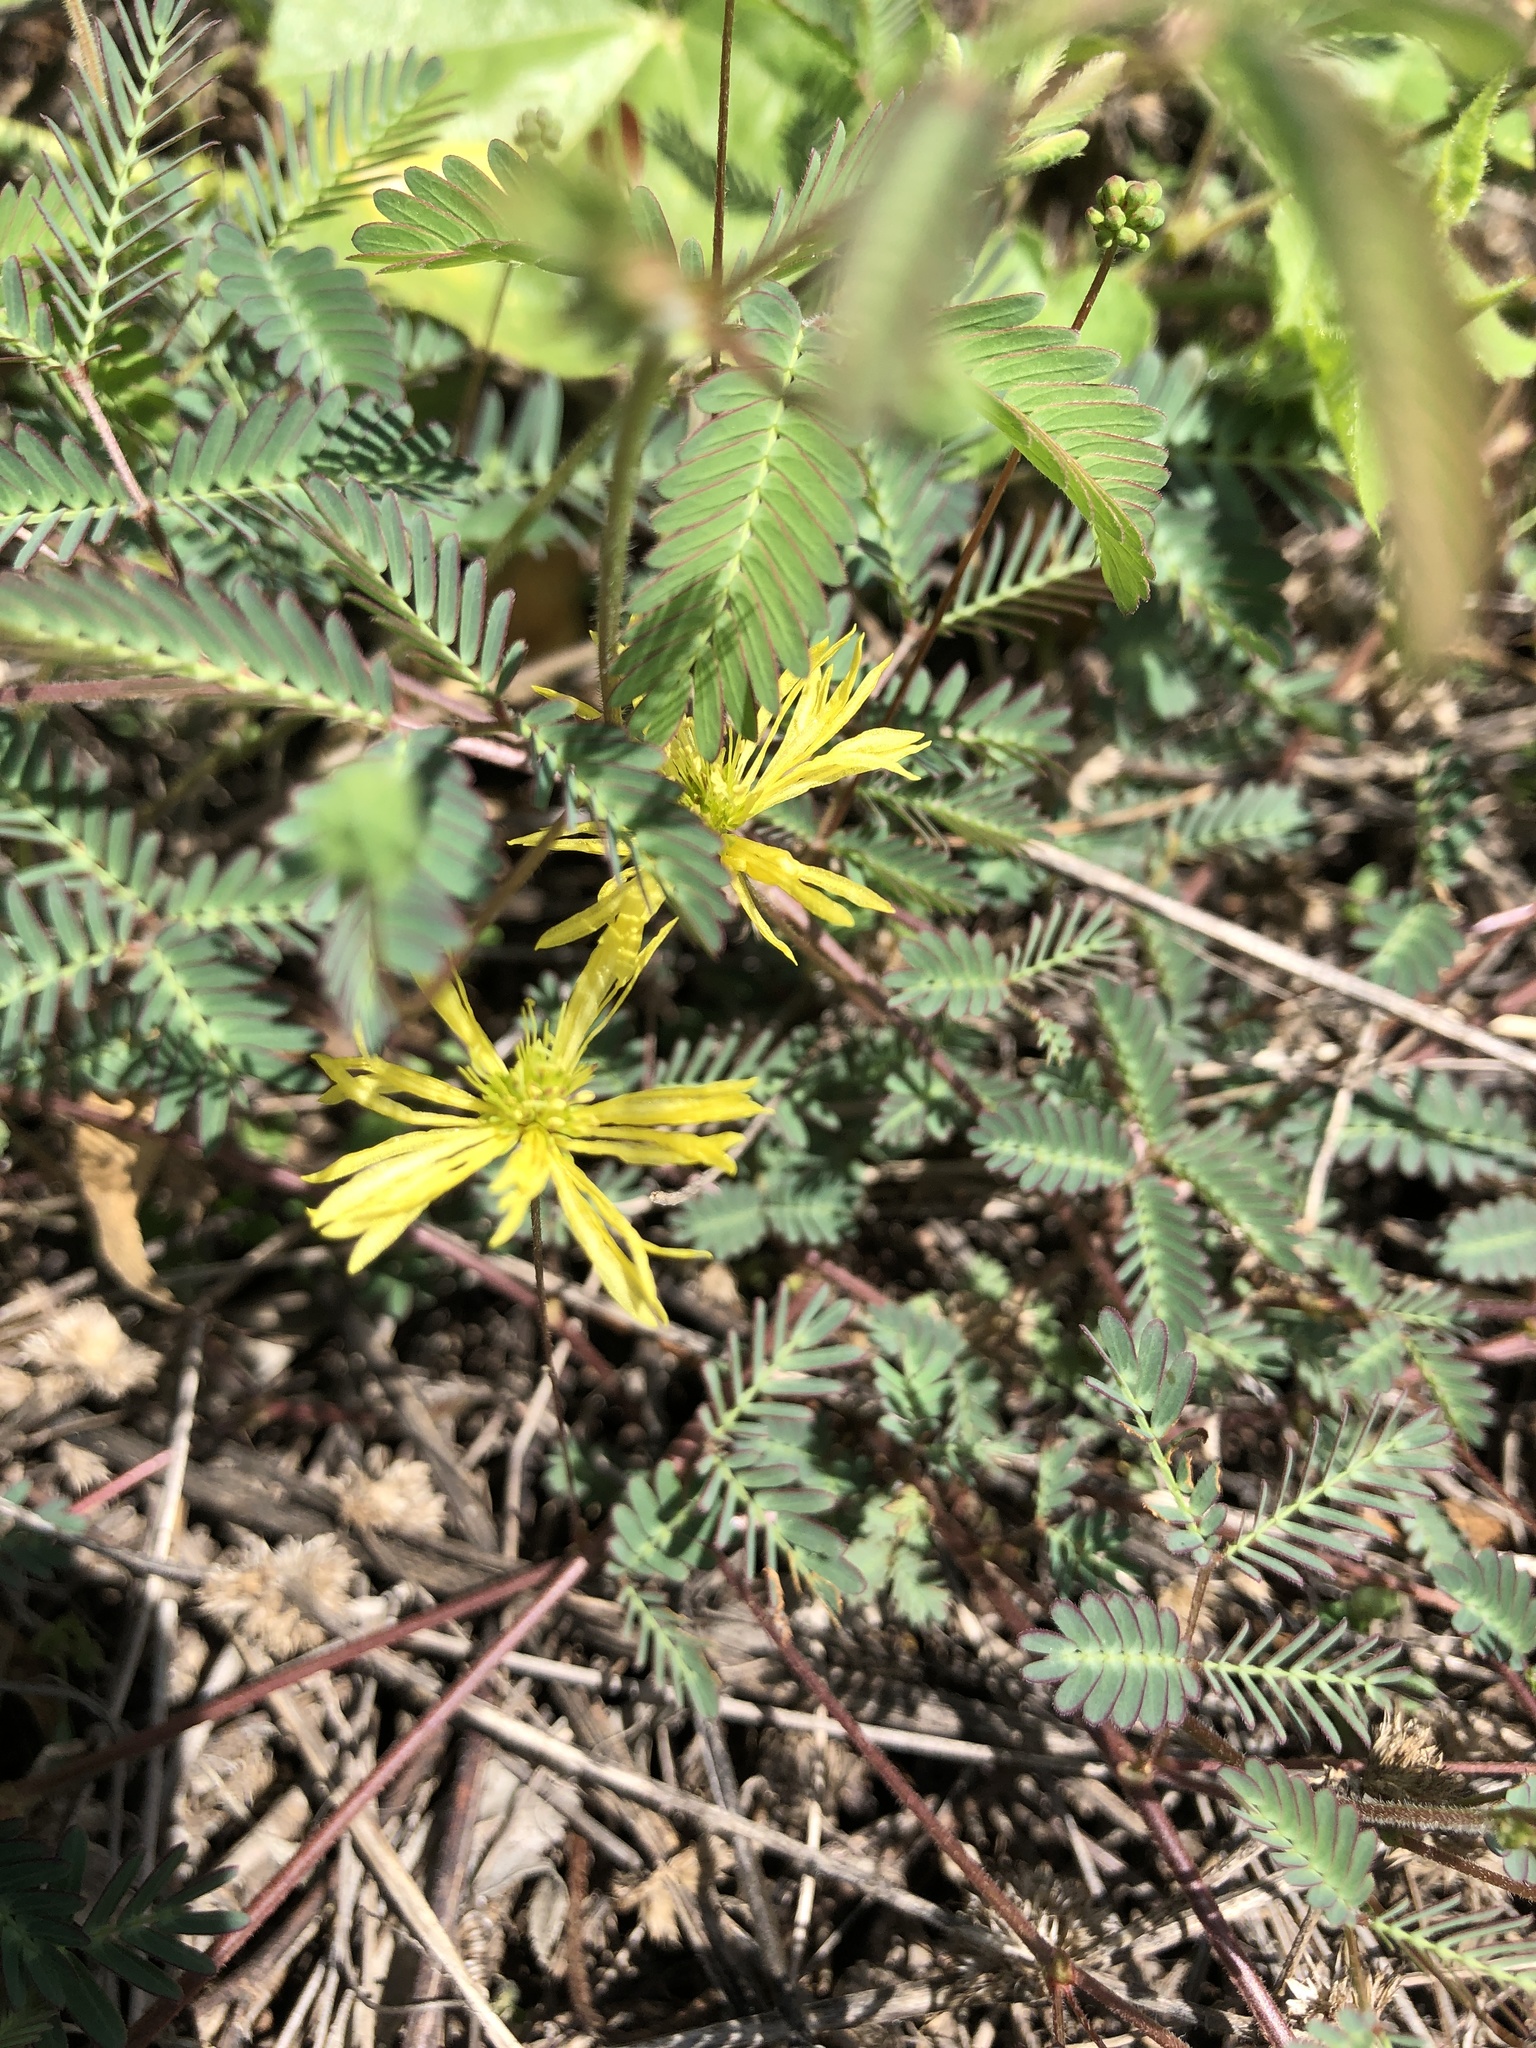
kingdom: Plantae
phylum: Tracheophyta
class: Magnoliopsida
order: Fabales
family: Fabaceae
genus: Neptunia
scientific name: Neptunia gracilis
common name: Sensitive-plant
